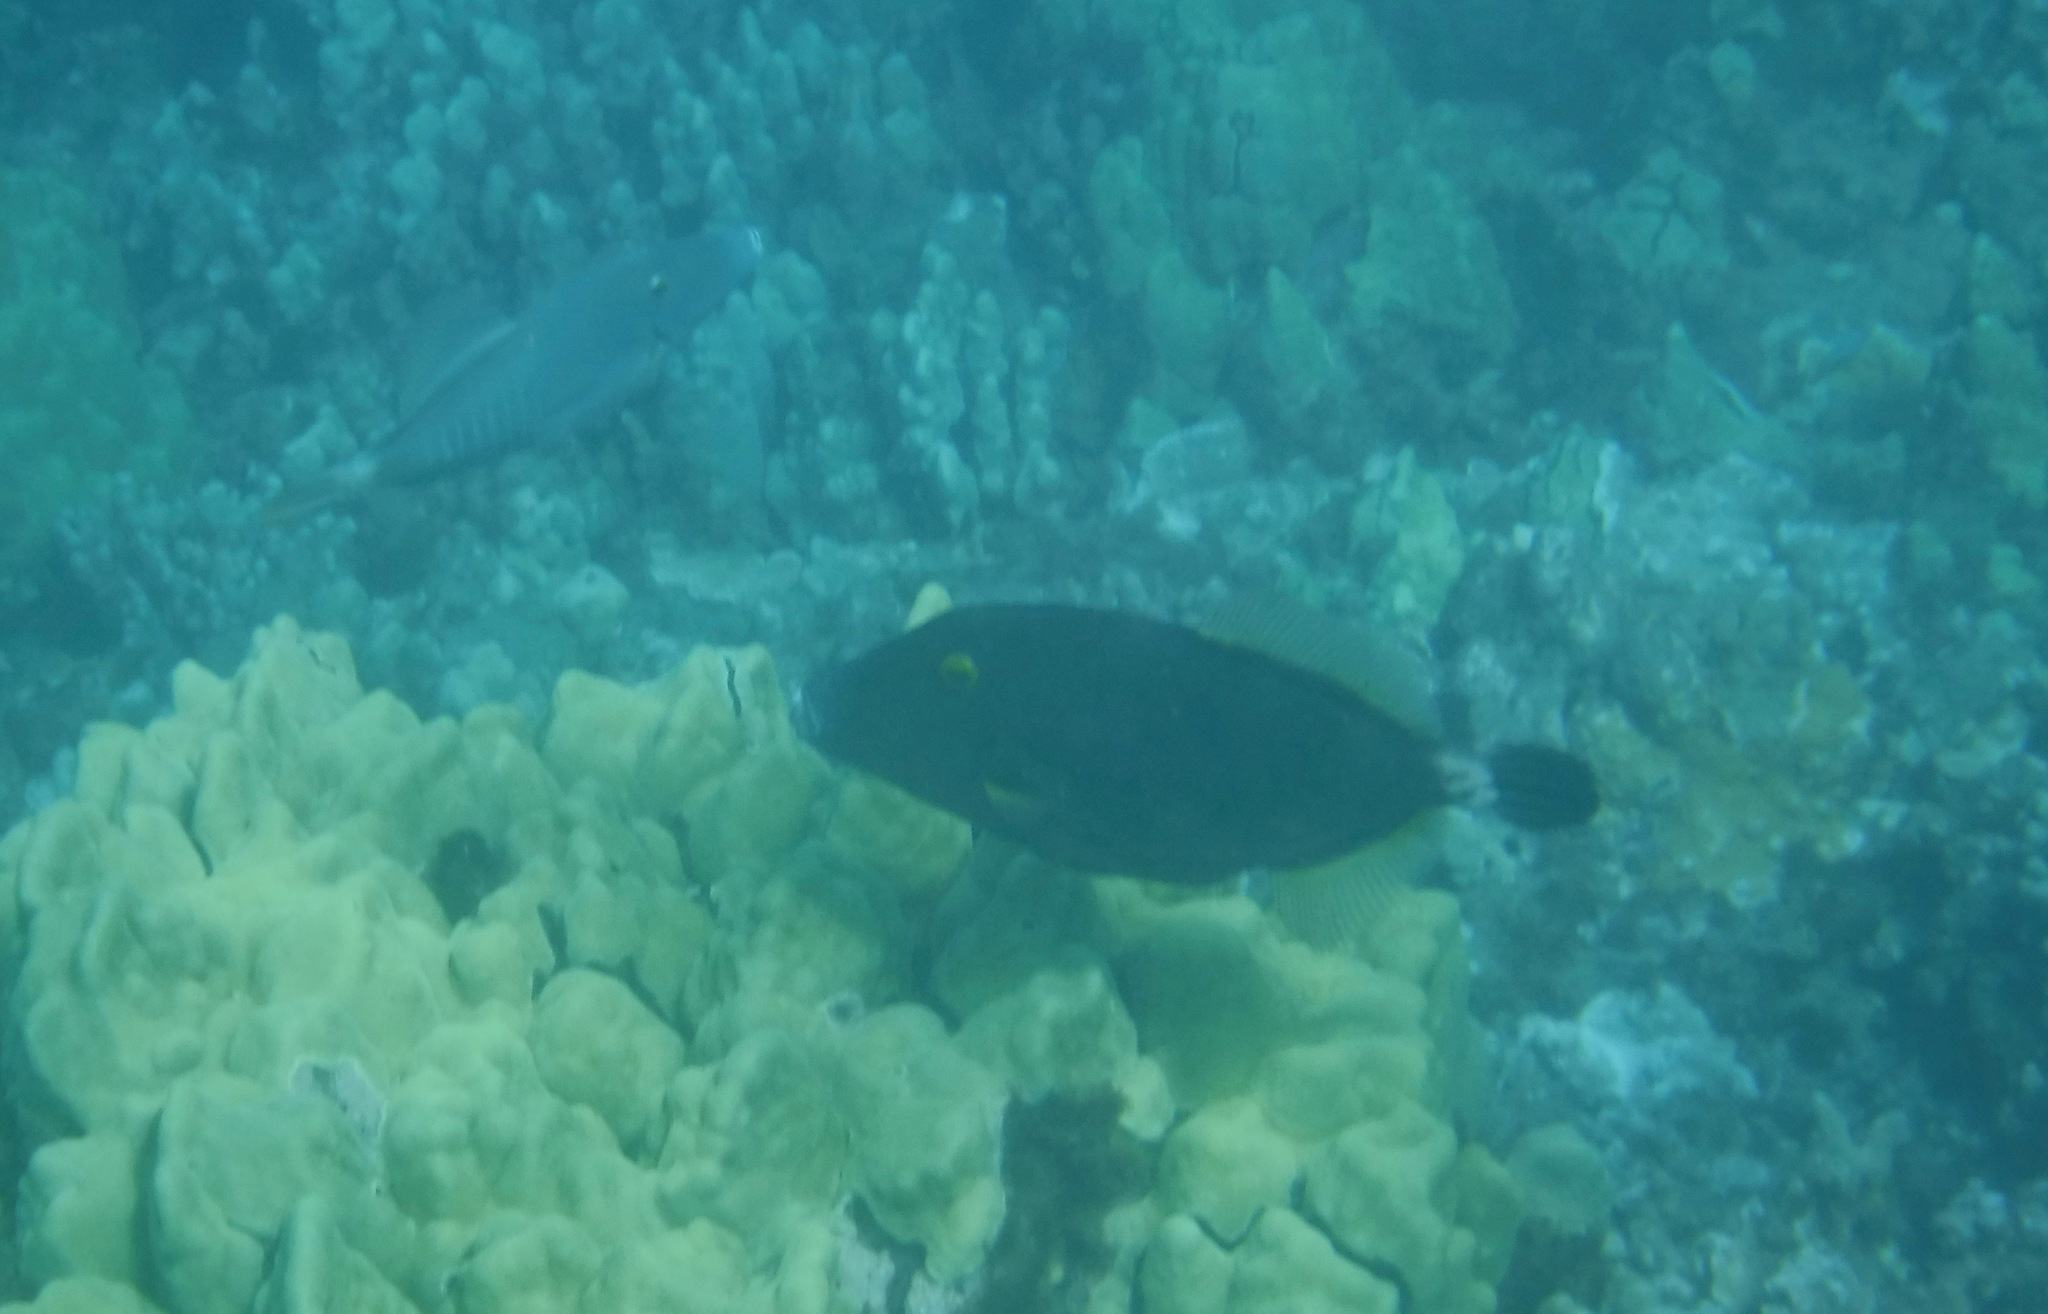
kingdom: Animalia
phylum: Chordata
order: Tetraodontiformes
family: Monacanthidae
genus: Cantherhines
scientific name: Cantherhines dumerilii
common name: Barred filefish
